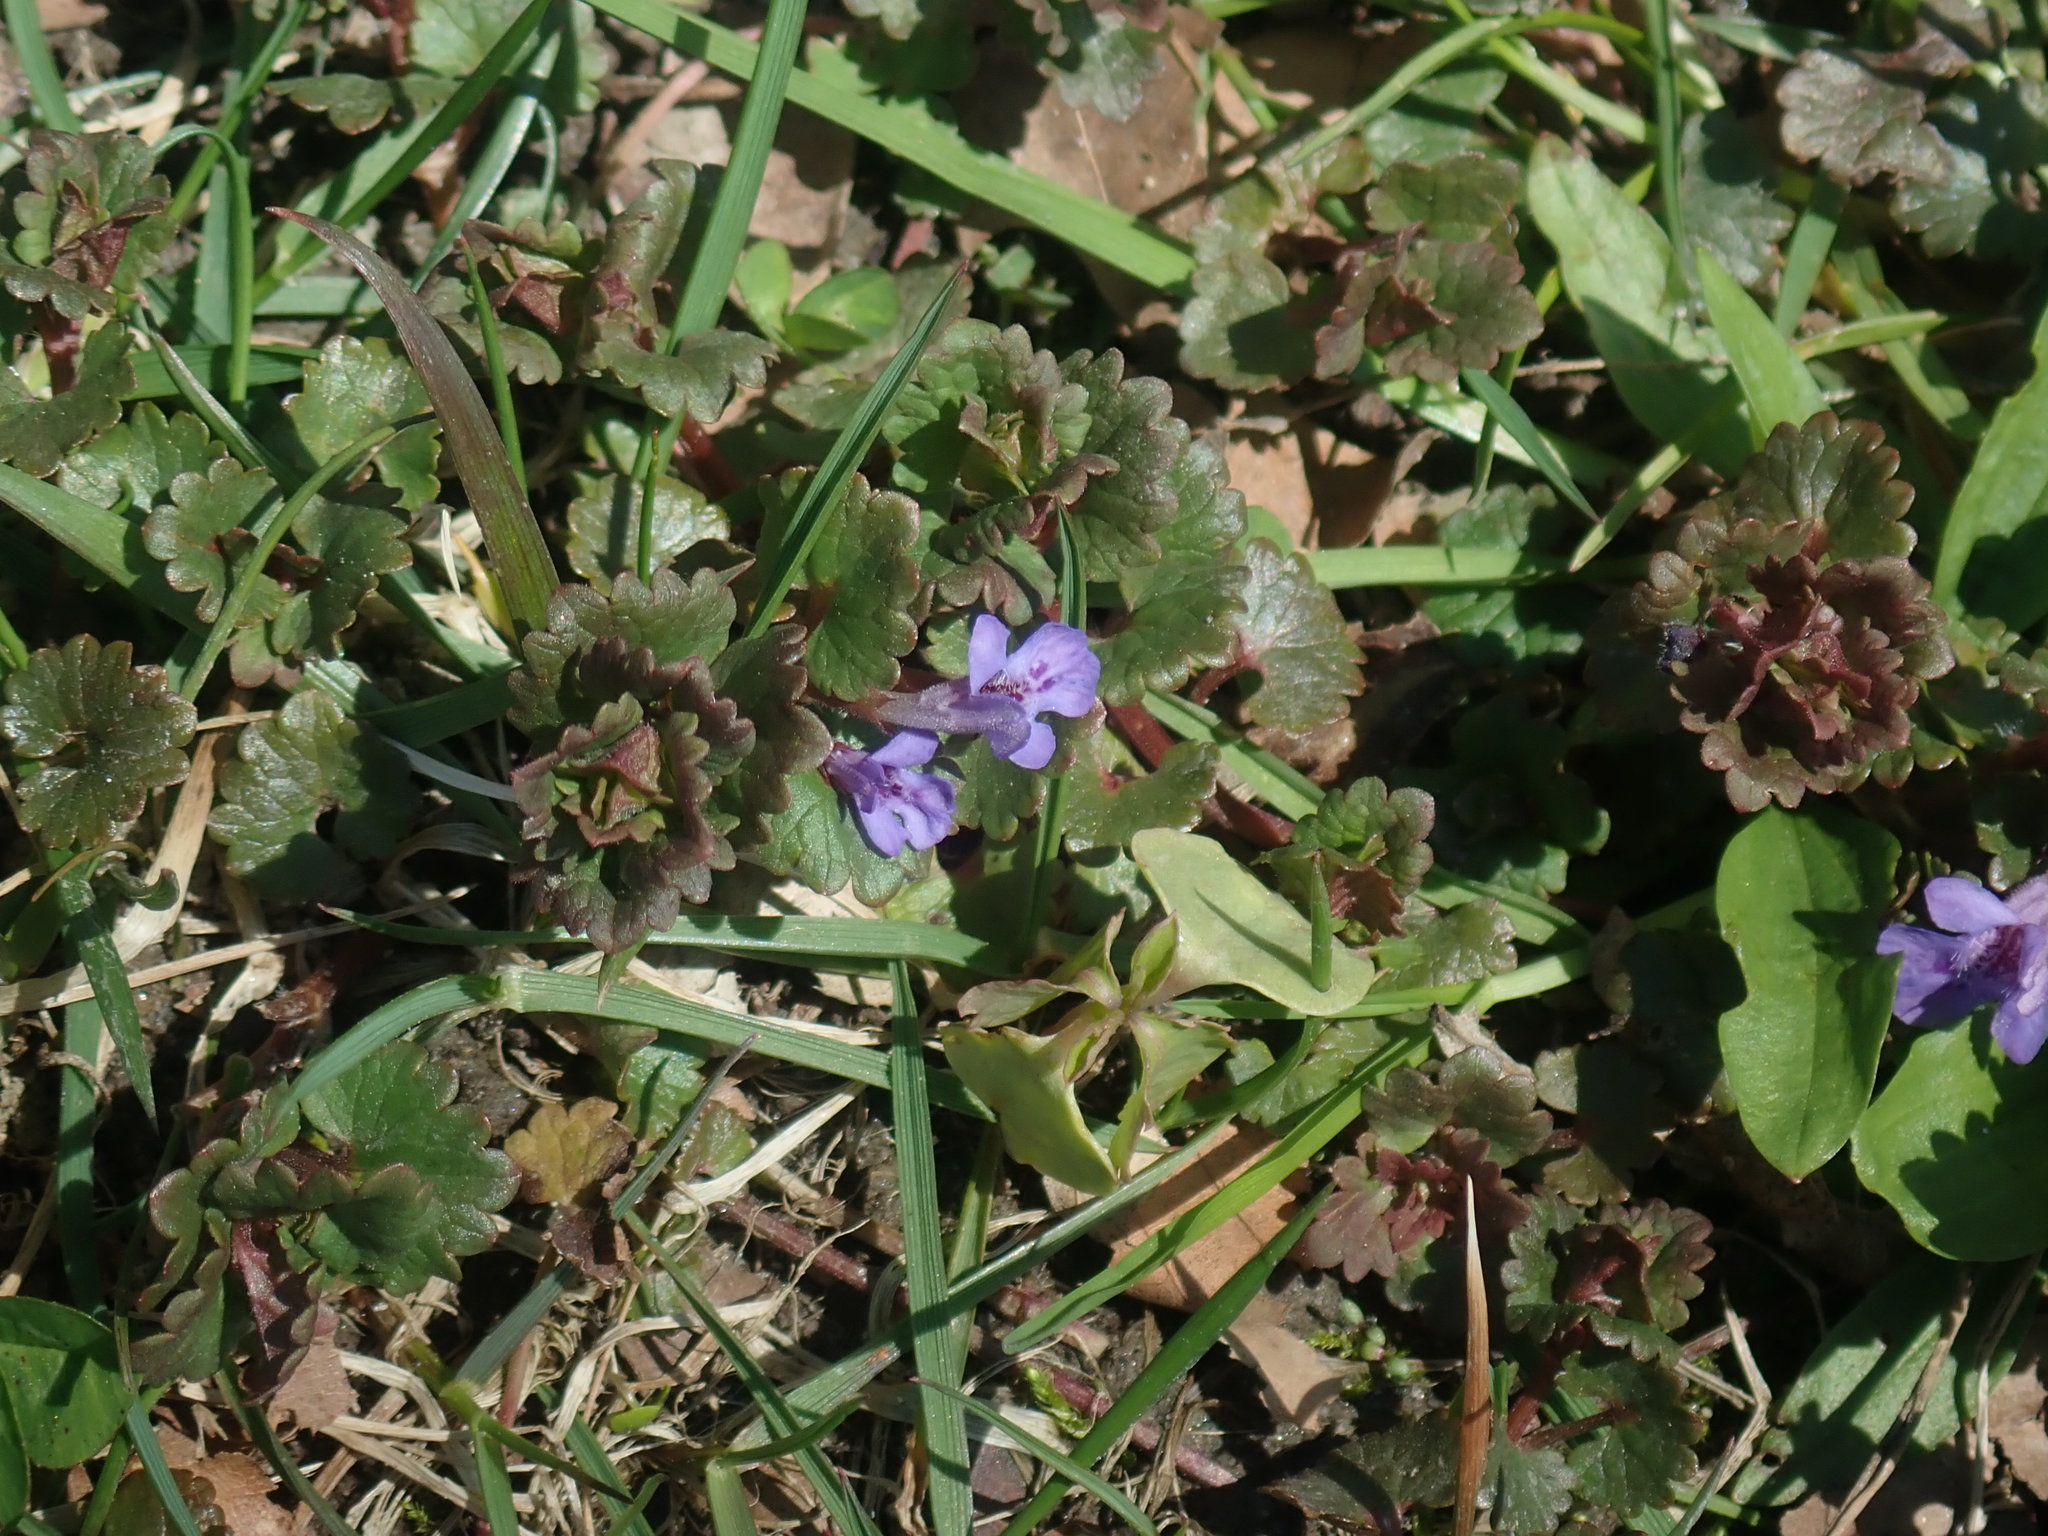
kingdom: Plantae
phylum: Tracheophyta
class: Magnoliopsida
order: Lamiales
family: Lamiaceae
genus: Glechoma
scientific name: Glechoma hederacea
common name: Ground ivy
